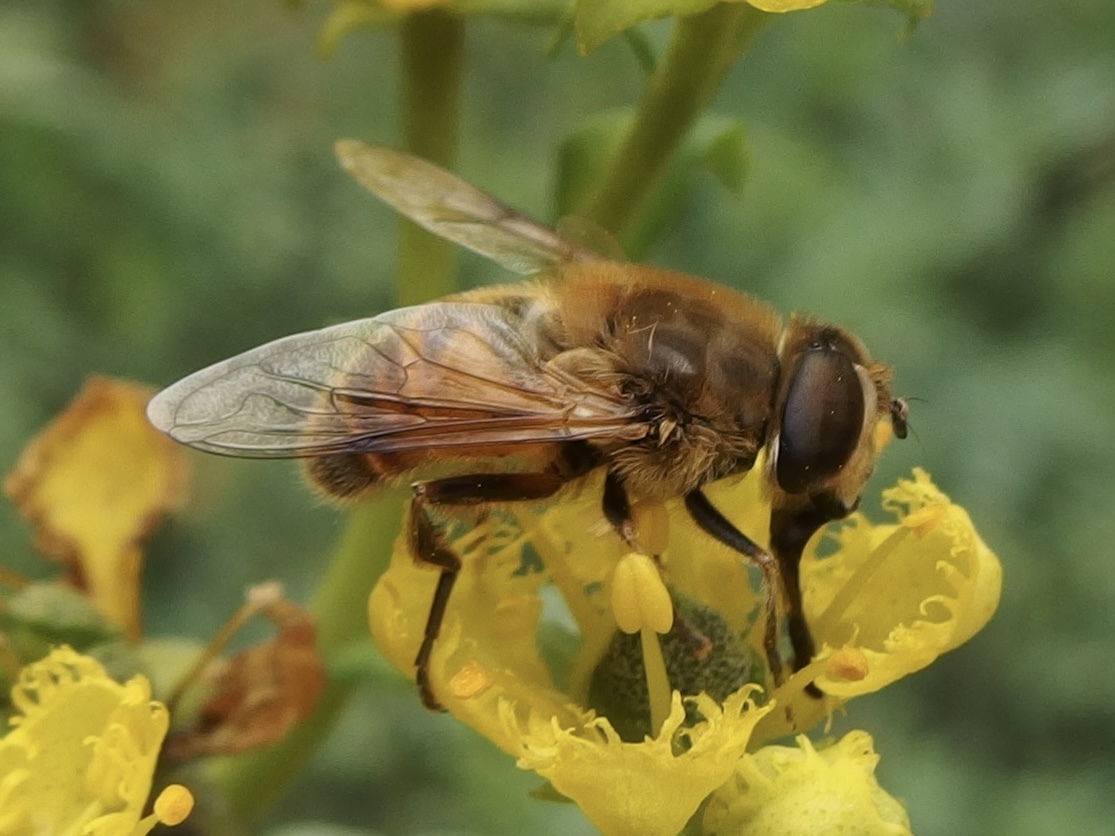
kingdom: Animalia
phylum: Arthropoda
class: Insecta
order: Diptera
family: Syrphidae
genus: Eristalis
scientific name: Eristalis tenax
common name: Drone fly
